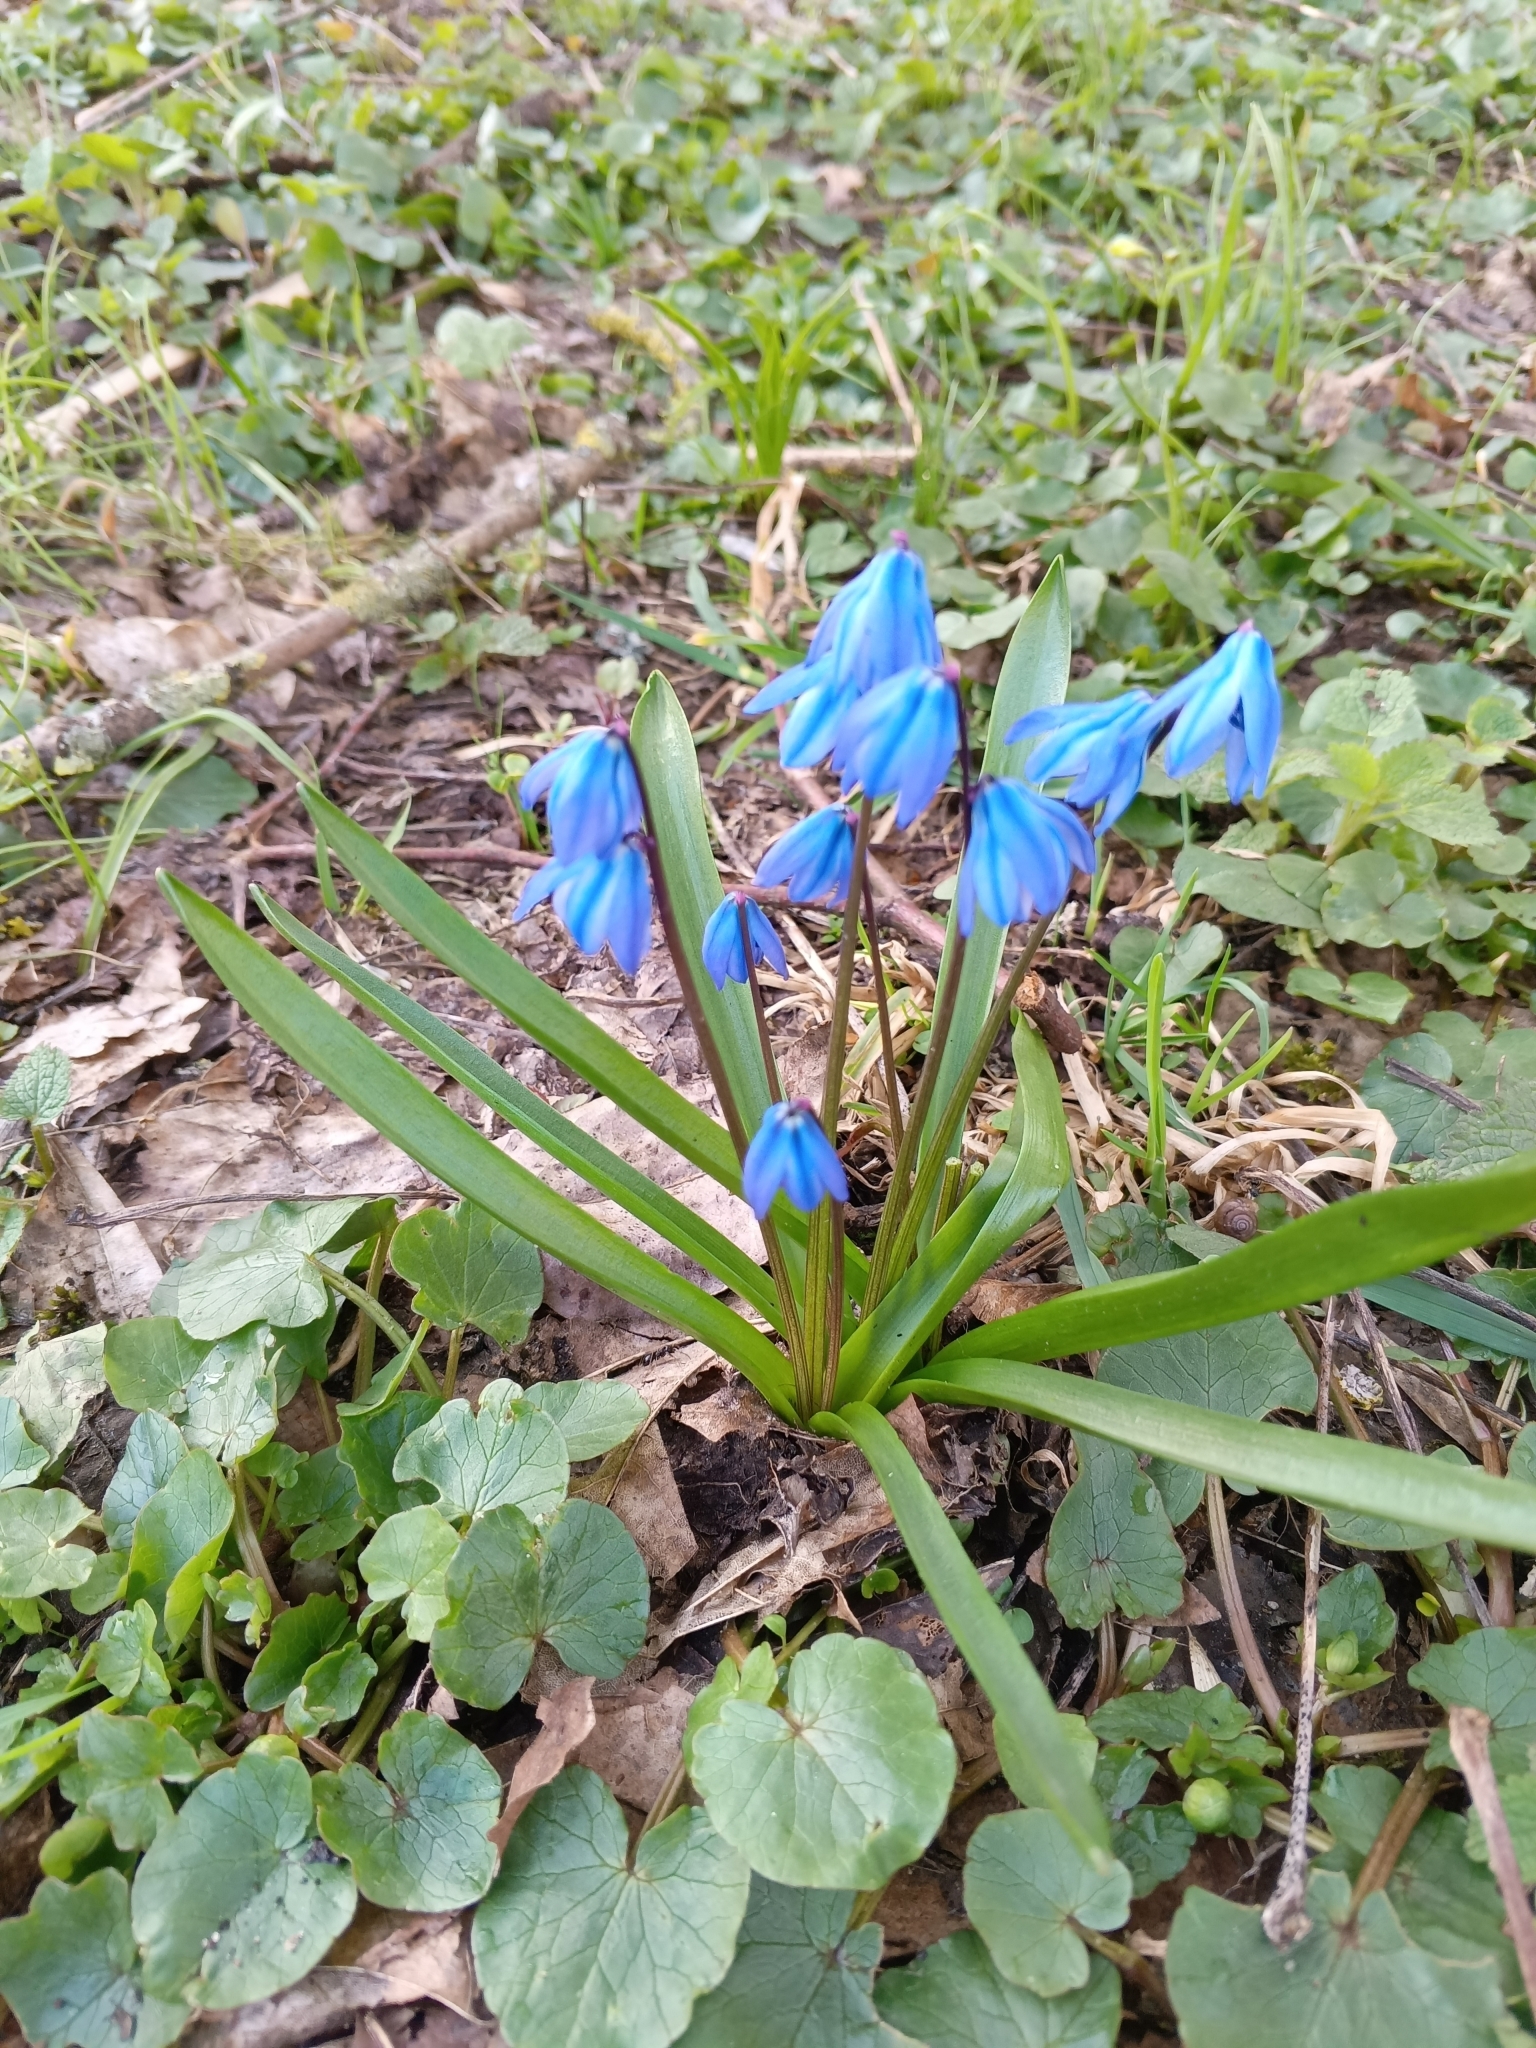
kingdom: Plantae
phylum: Tracheophyta
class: Liliopsida
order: Asparagales
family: Asparagaceae
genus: Scilla
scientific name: Scilla siberica
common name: Siberian squill
